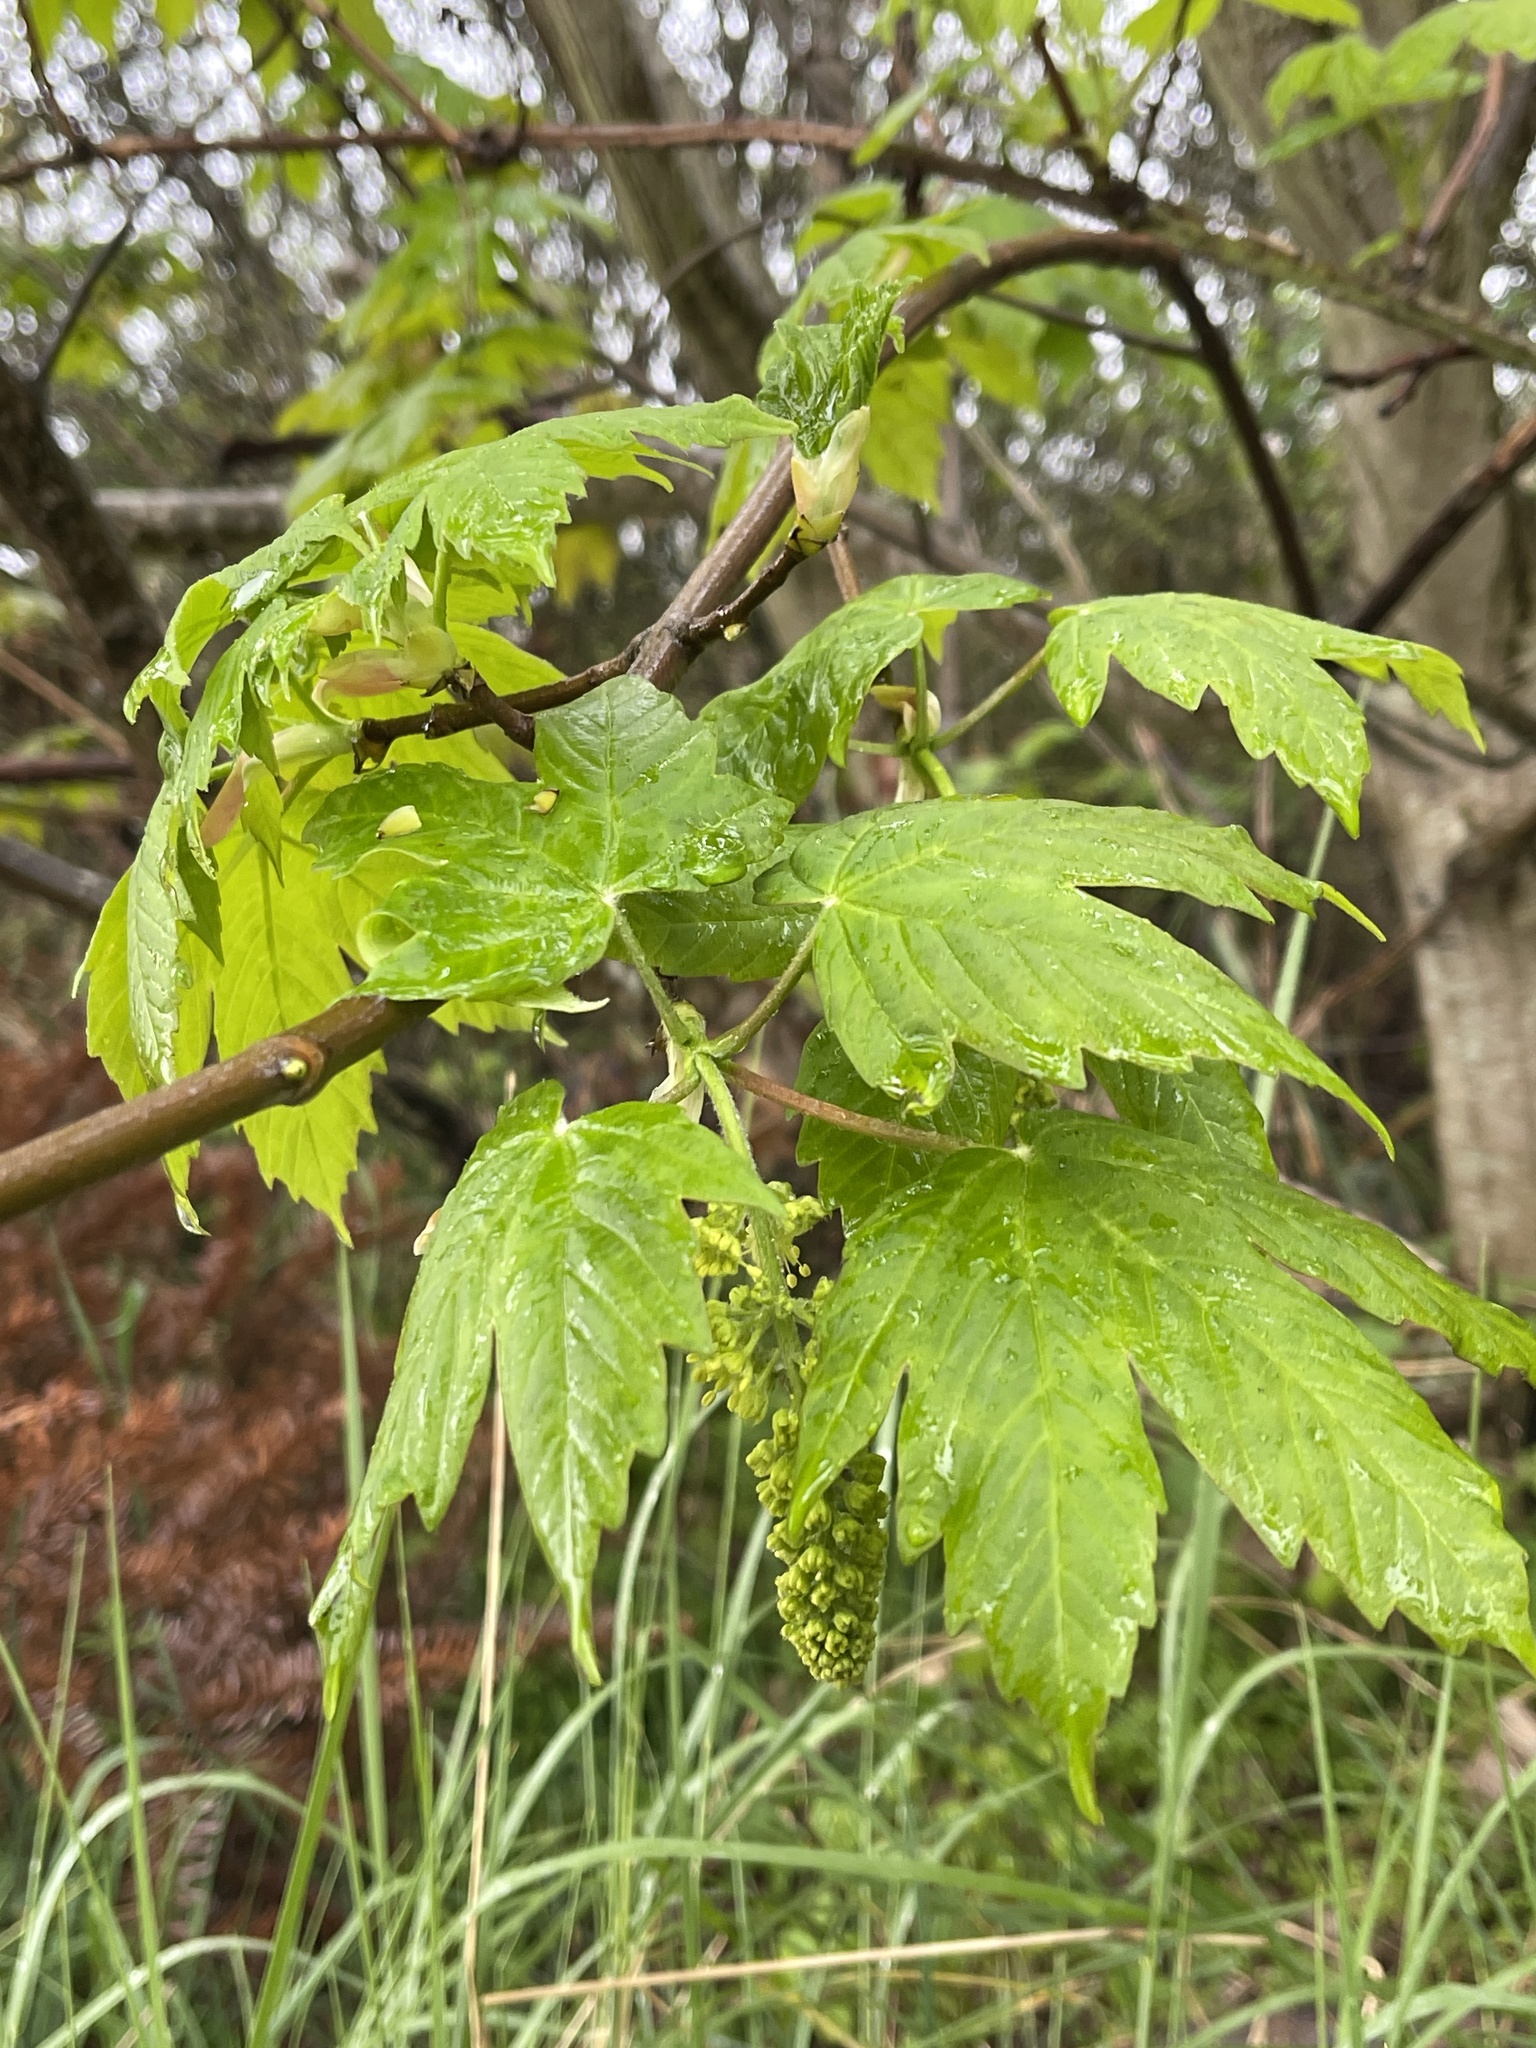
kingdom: Plantae
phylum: Tracheophyta
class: Magnoliopsida
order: Sapindales
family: Sapindaceae
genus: Acer
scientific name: Acer pseudoplatanus
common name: Sycamore
